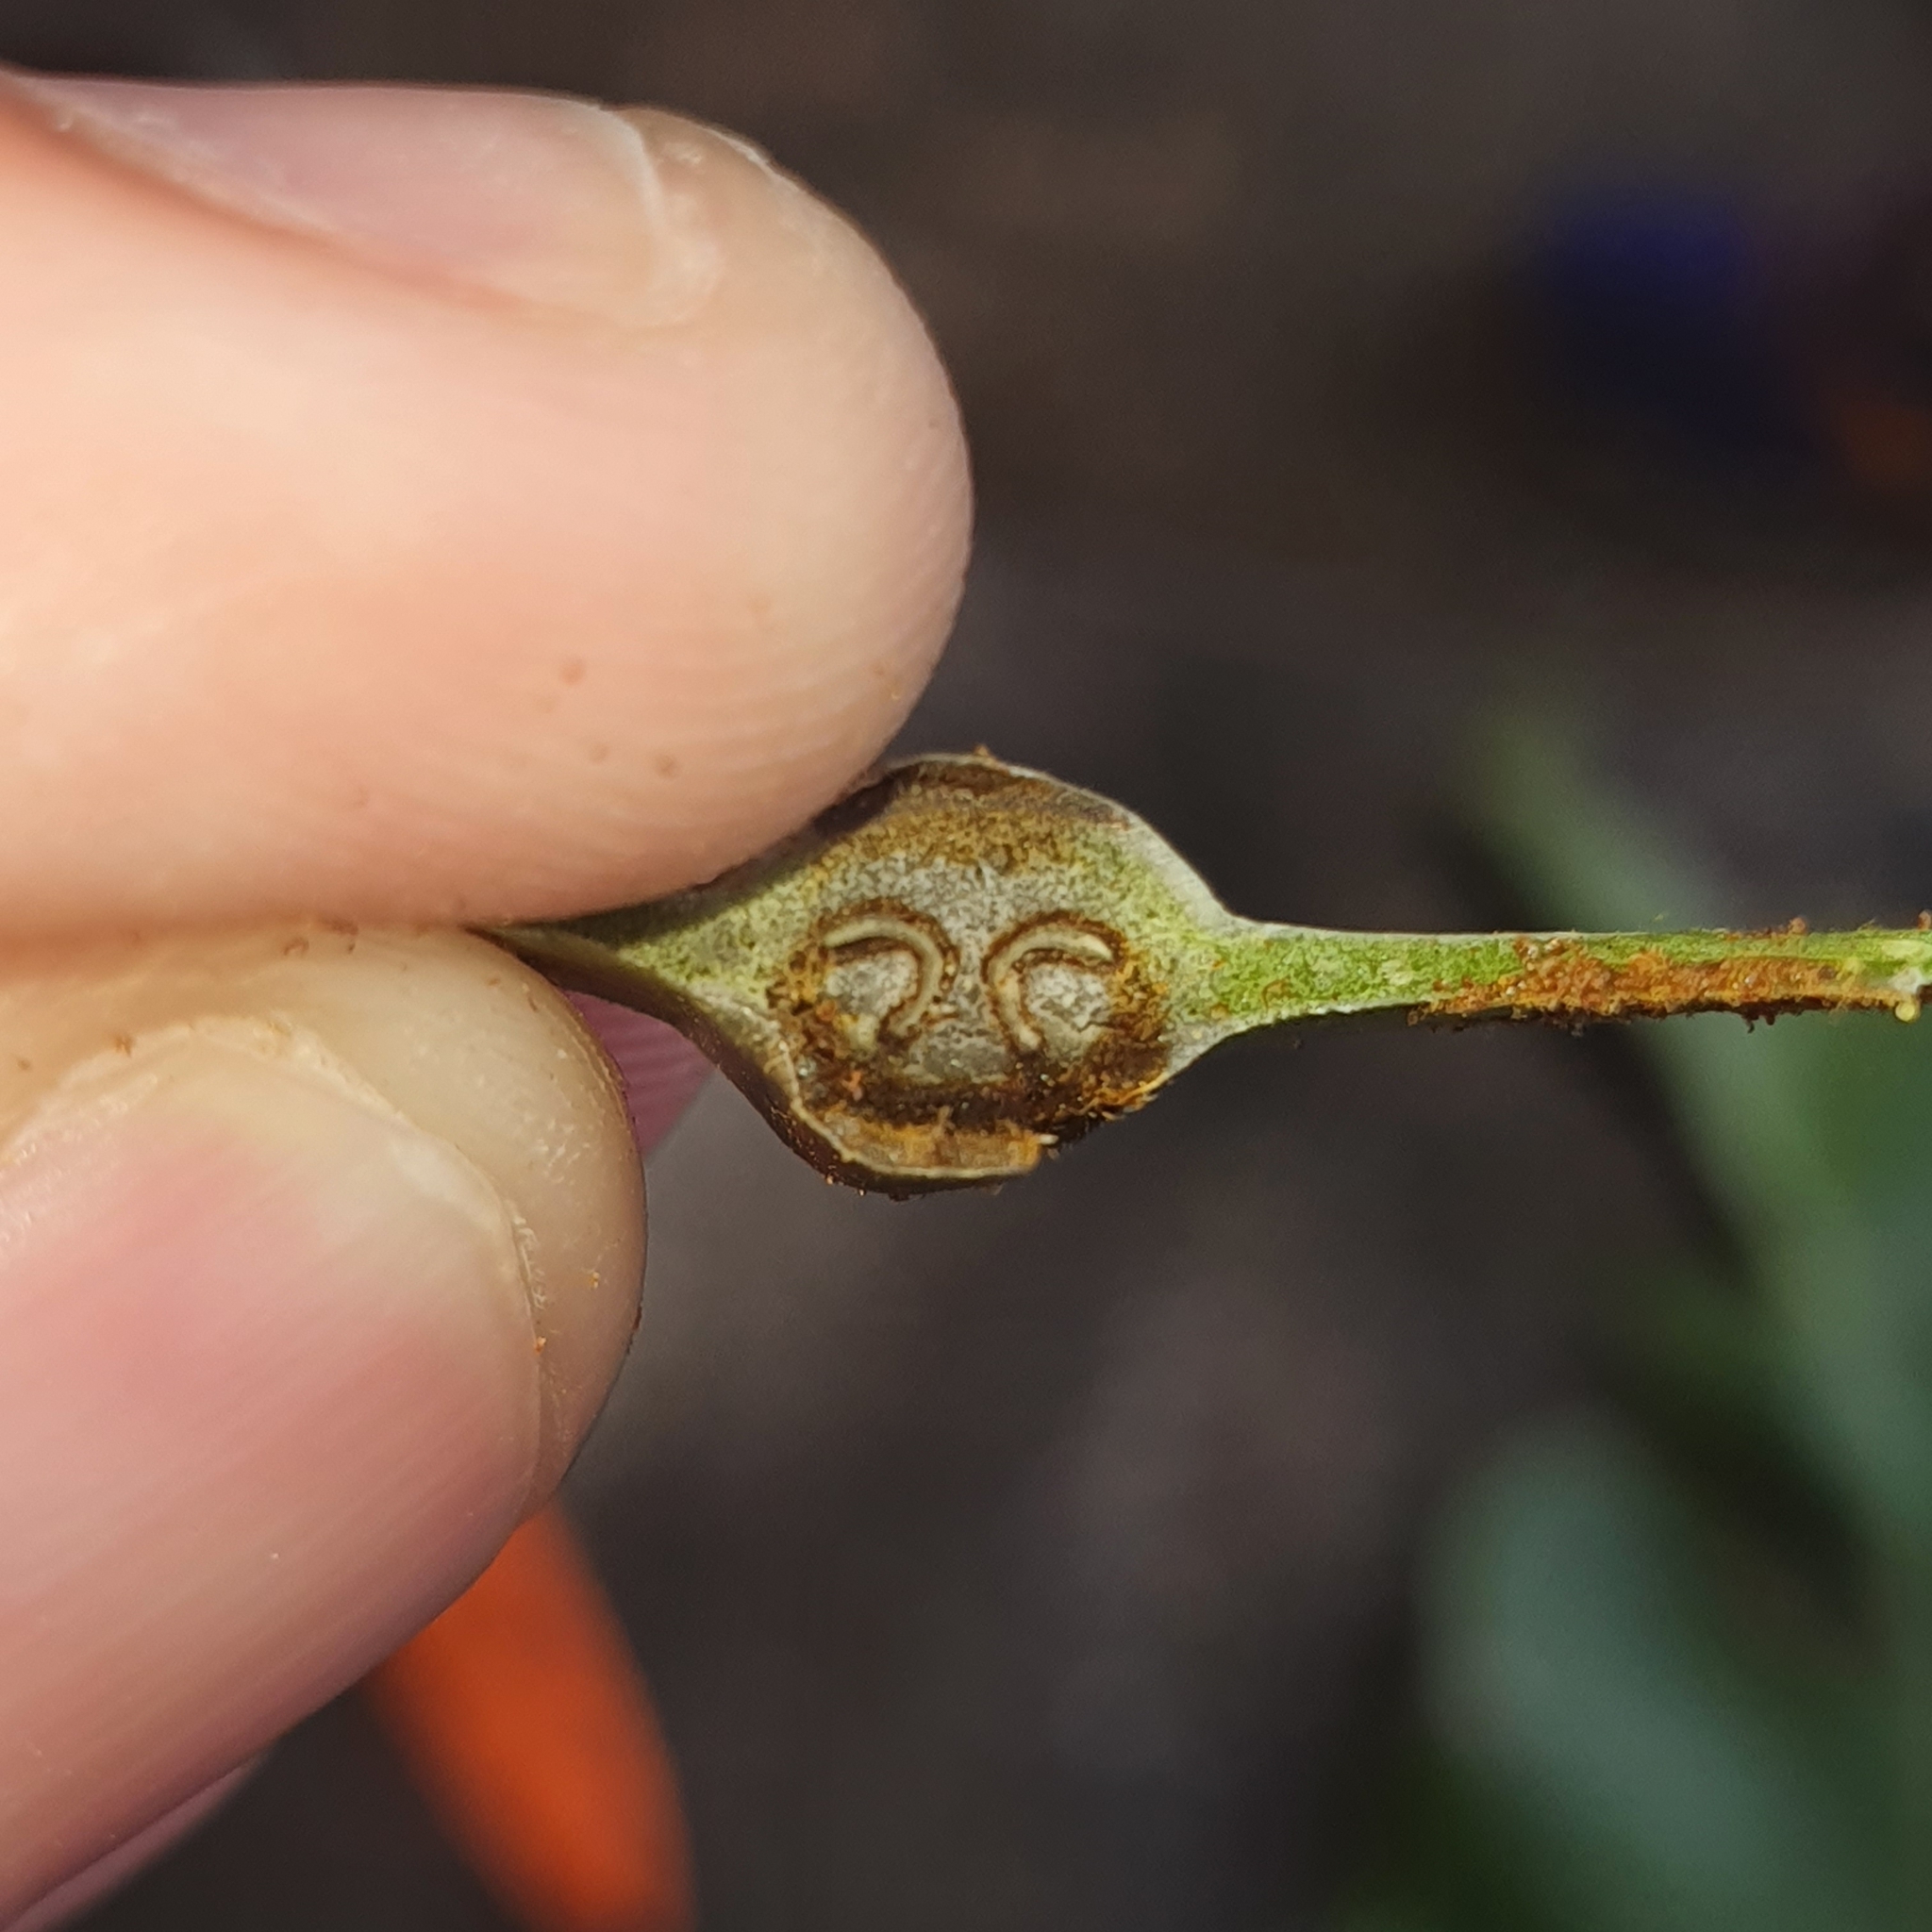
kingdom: Plantae
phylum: Tracheophyta
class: Polypodiopsida
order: Polypodiales
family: Aspleniaceae
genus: Asplenium
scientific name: Asplenium nidus
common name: Bird's-nest fern
